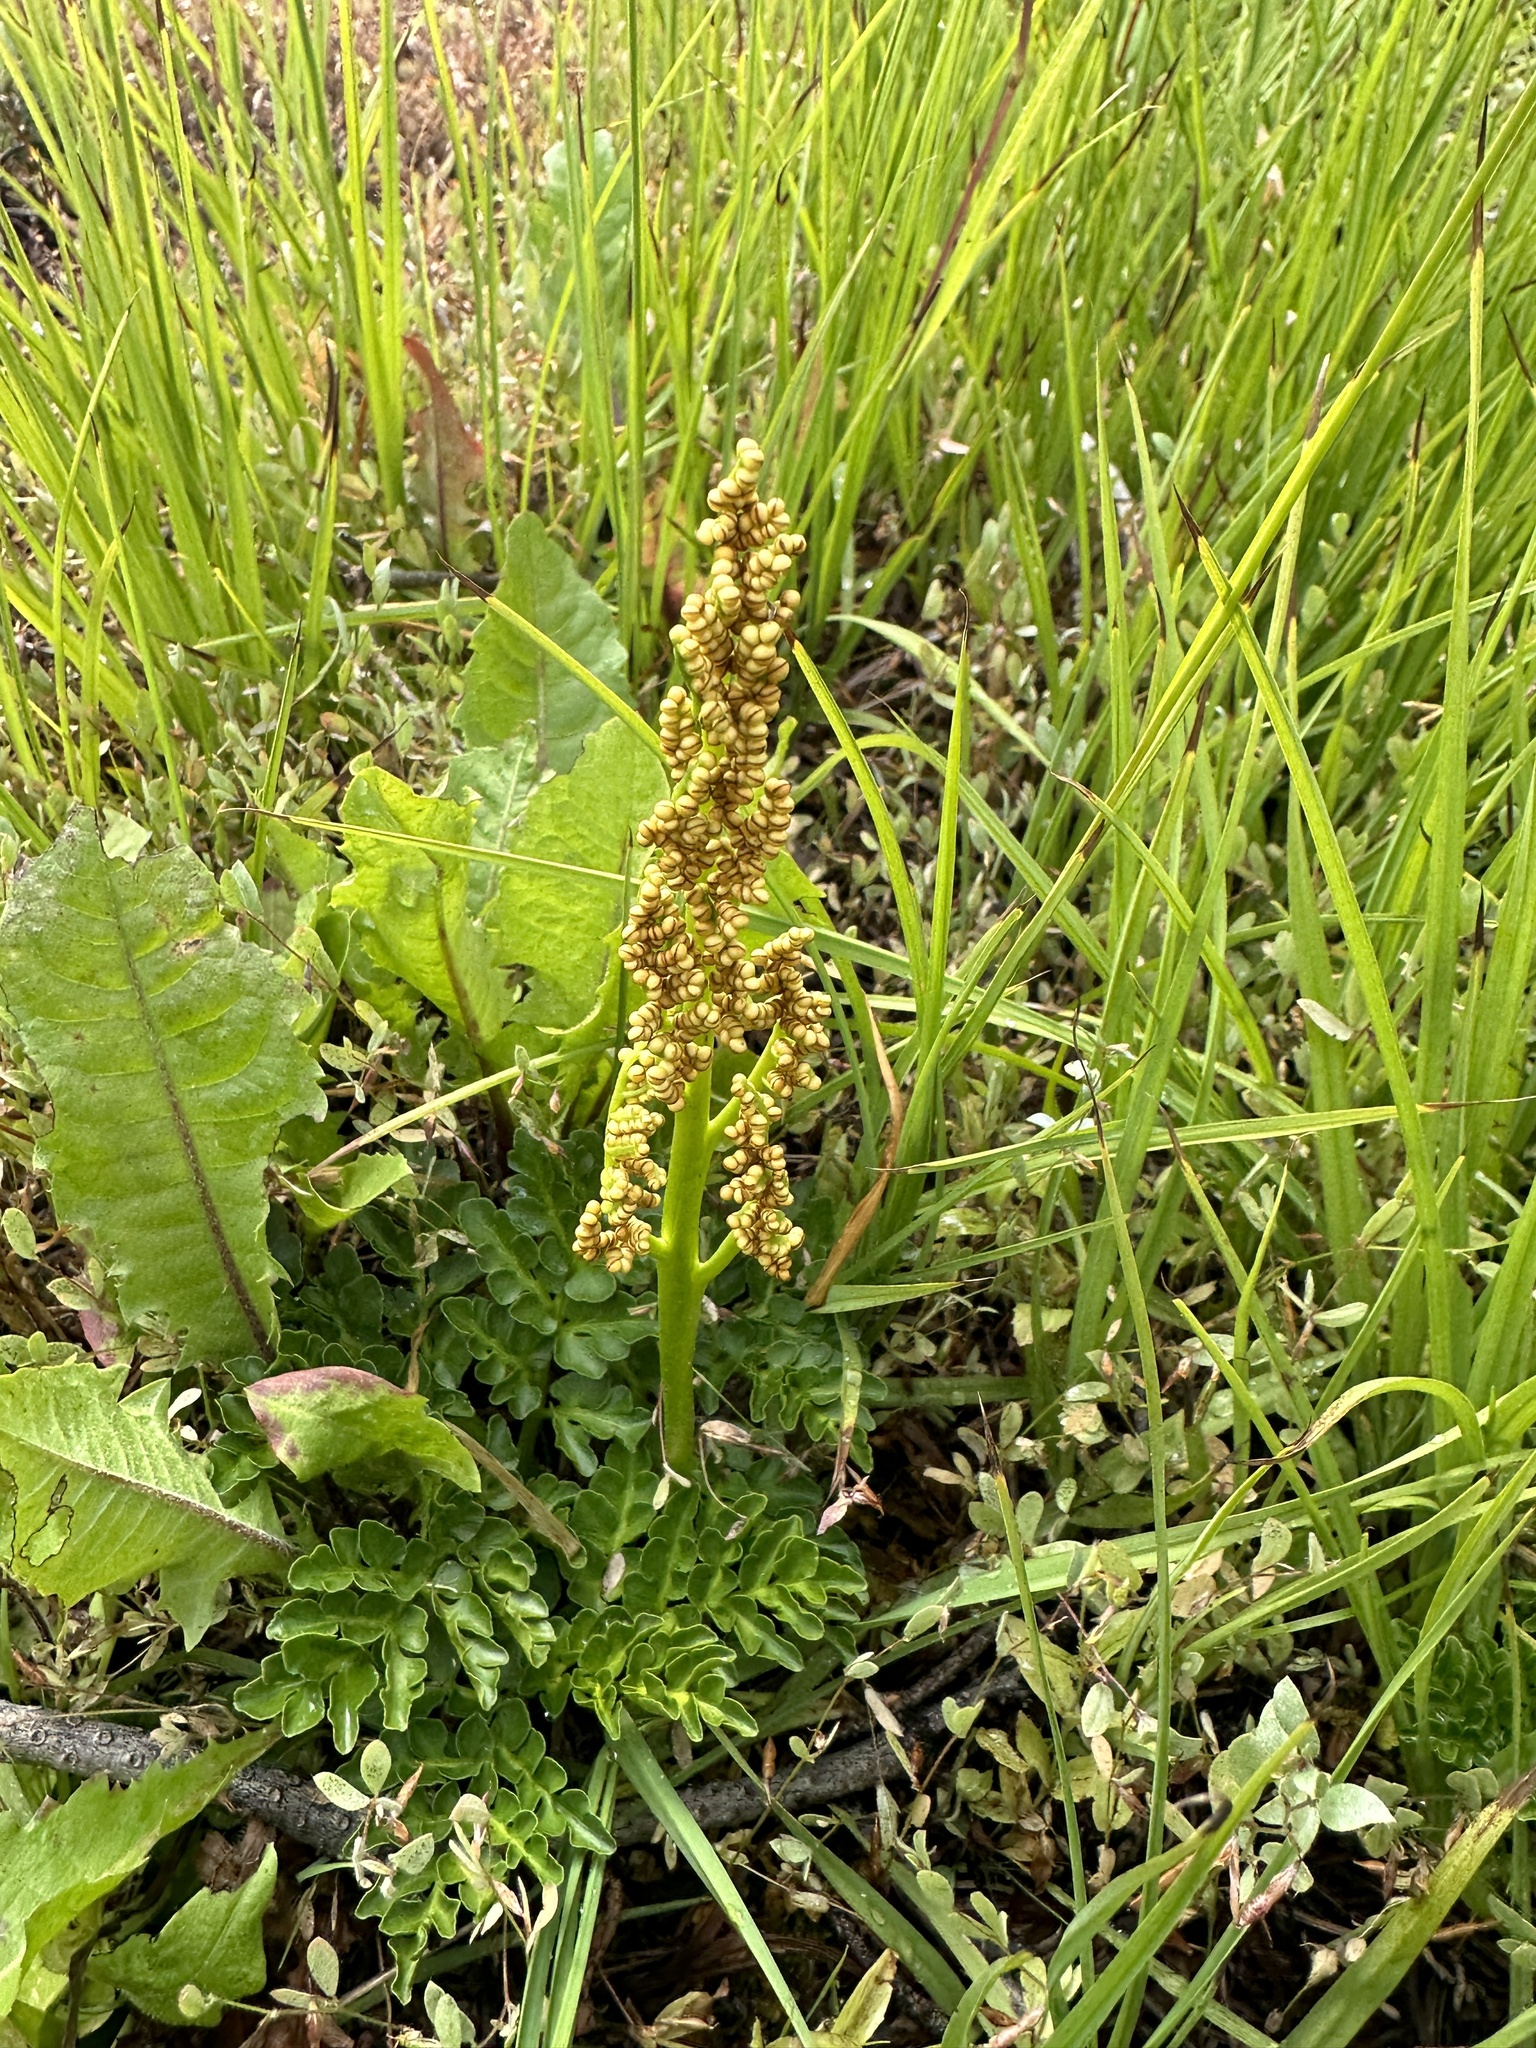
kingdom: Plantae
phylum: Tracheophyta
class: Polypodiopsida
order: Ophioglossales
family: Ophioglossaceae
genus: Sceptridium
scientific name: Sceptridium multifidum
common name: Leathery grape fern
